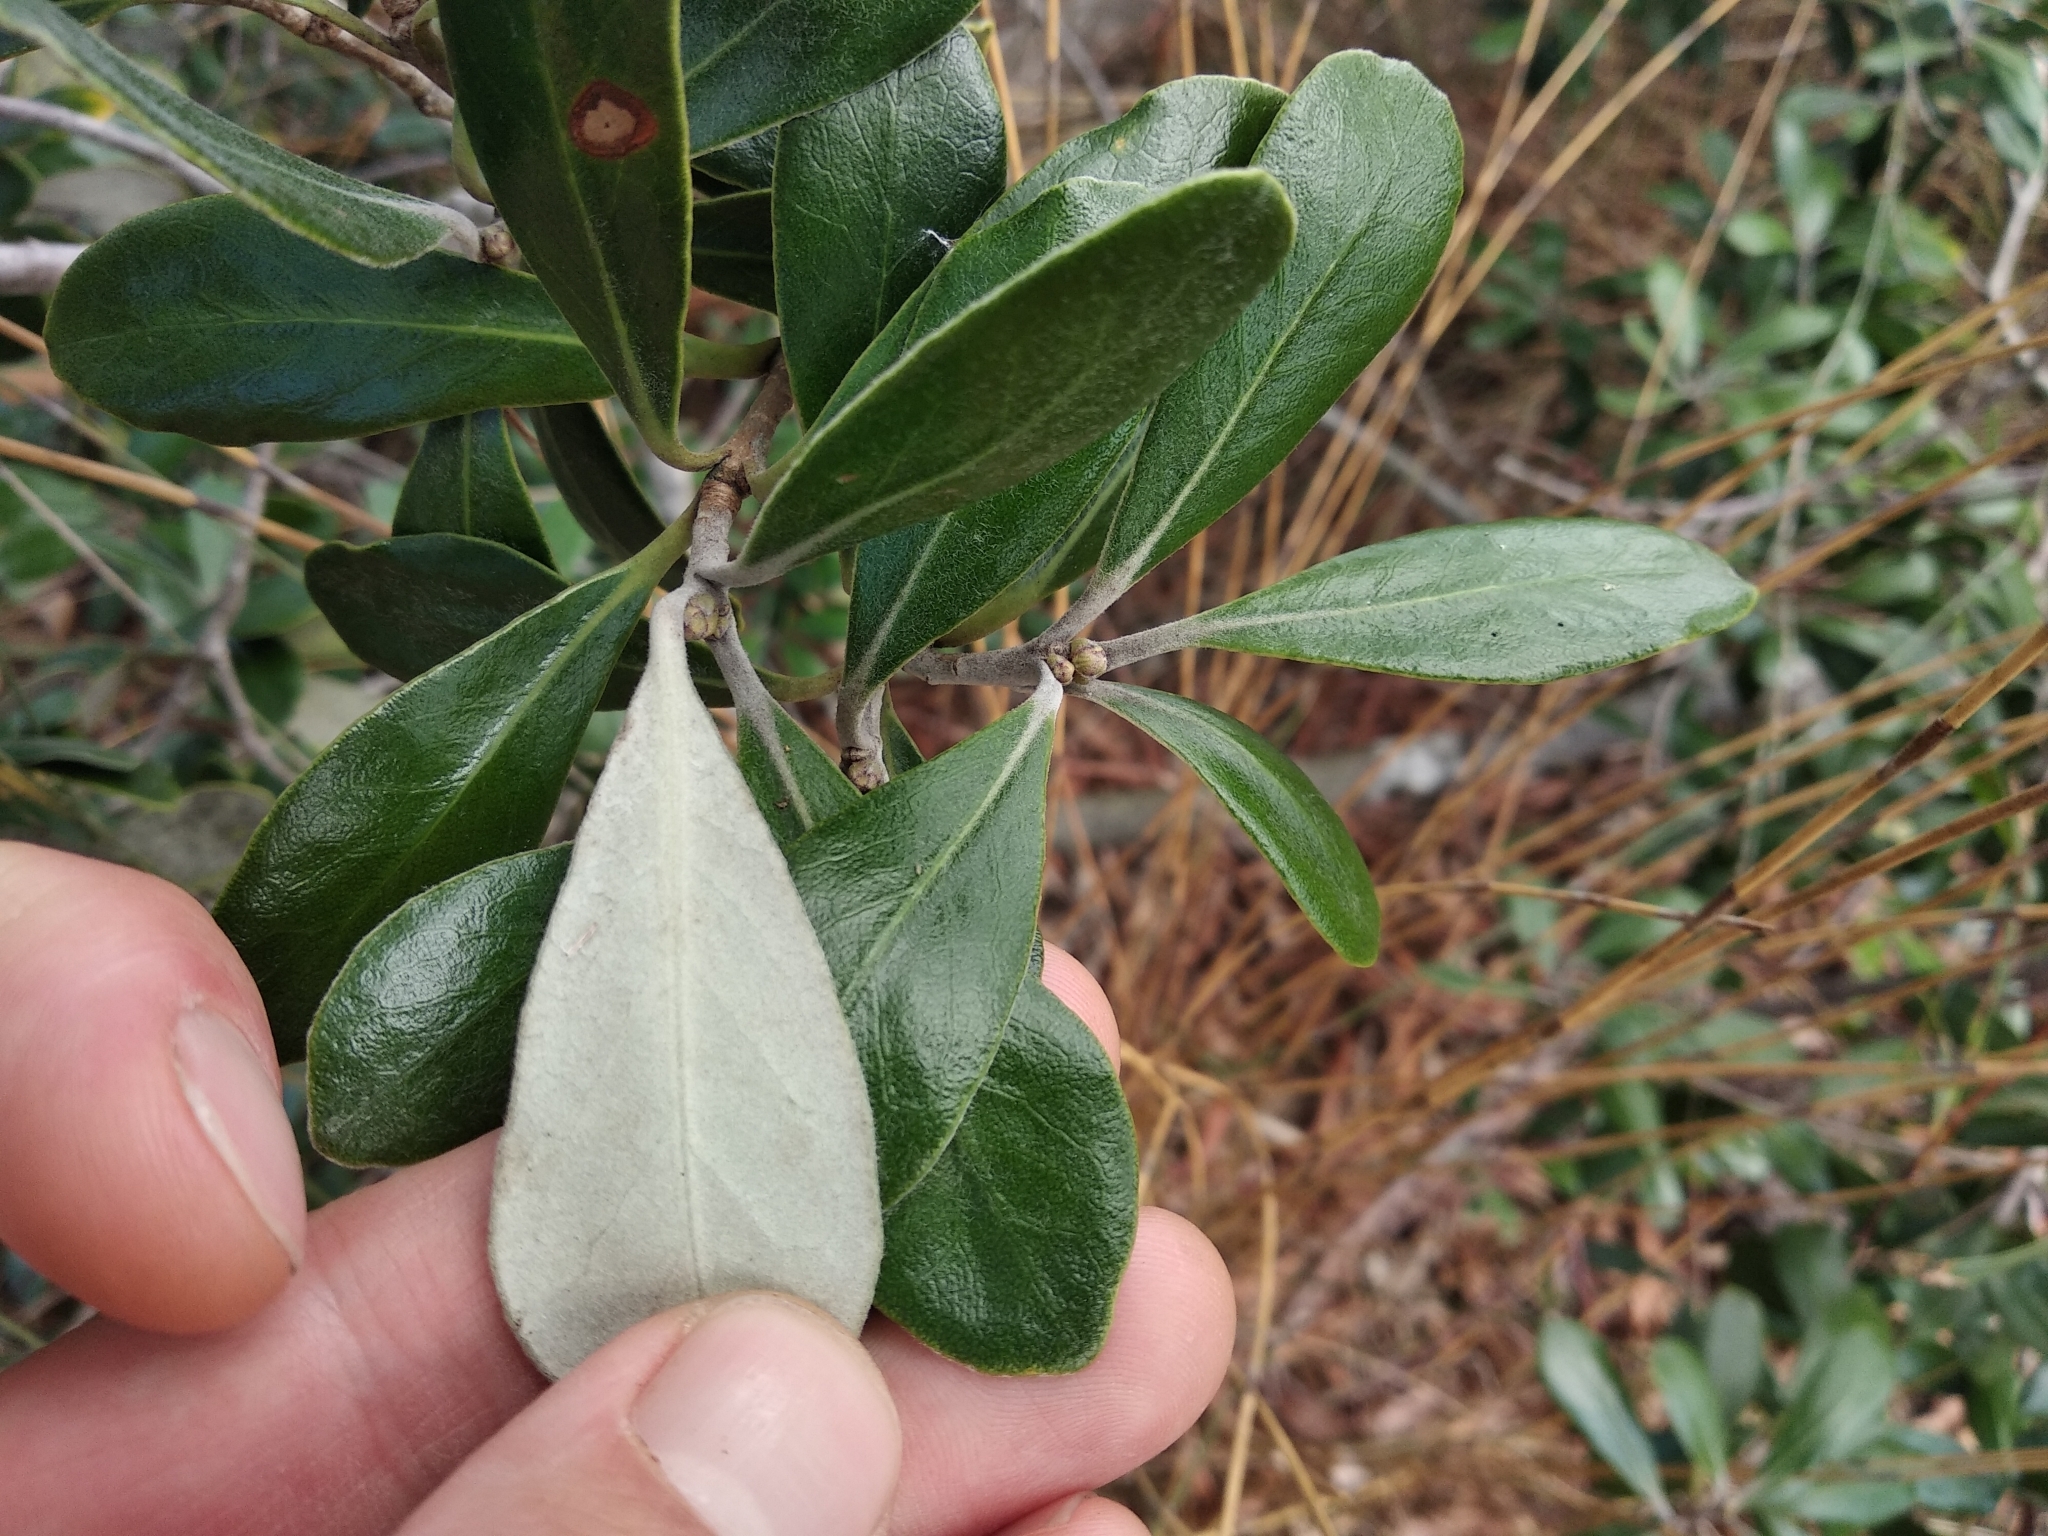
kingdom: Plantae
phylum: Tracheophyta
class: Magnoliopsida
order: Apiales
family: Pittosporaceae
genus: Pittosporum
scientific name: Pittosporum crassifolium
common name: Karo
